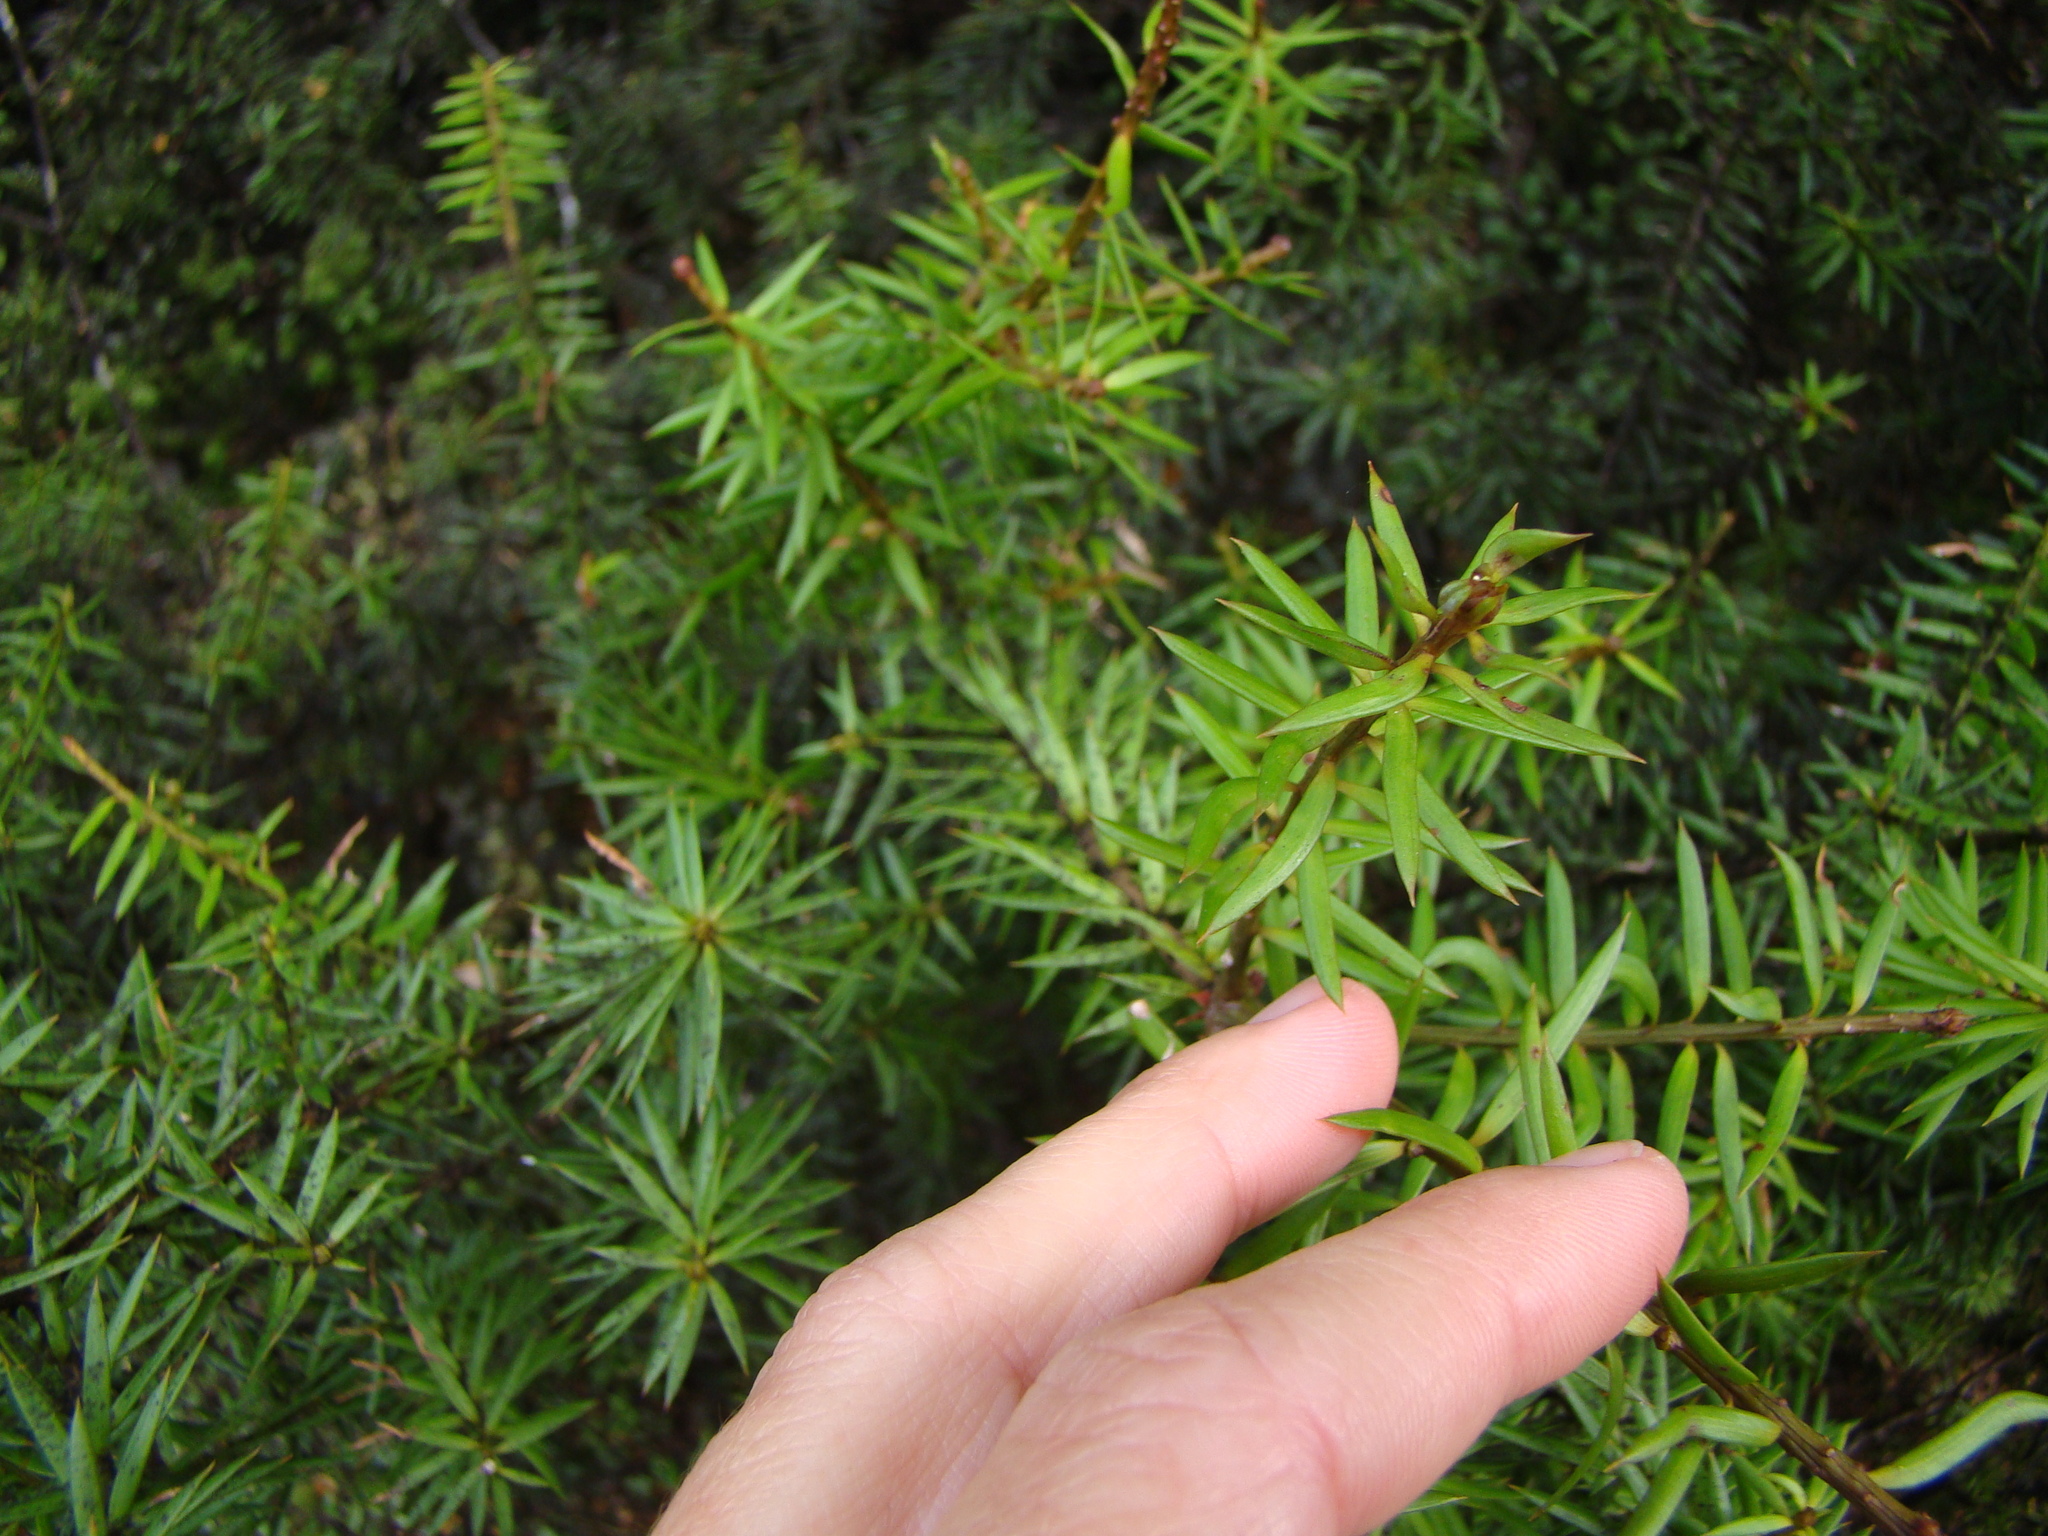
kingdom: Plantae
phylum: Tracheophyta
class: Pinopsida
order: Pinales
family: Podocarpaceae
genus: Podocarpus
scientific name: Podocarpus laetus
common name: Hall's totara
